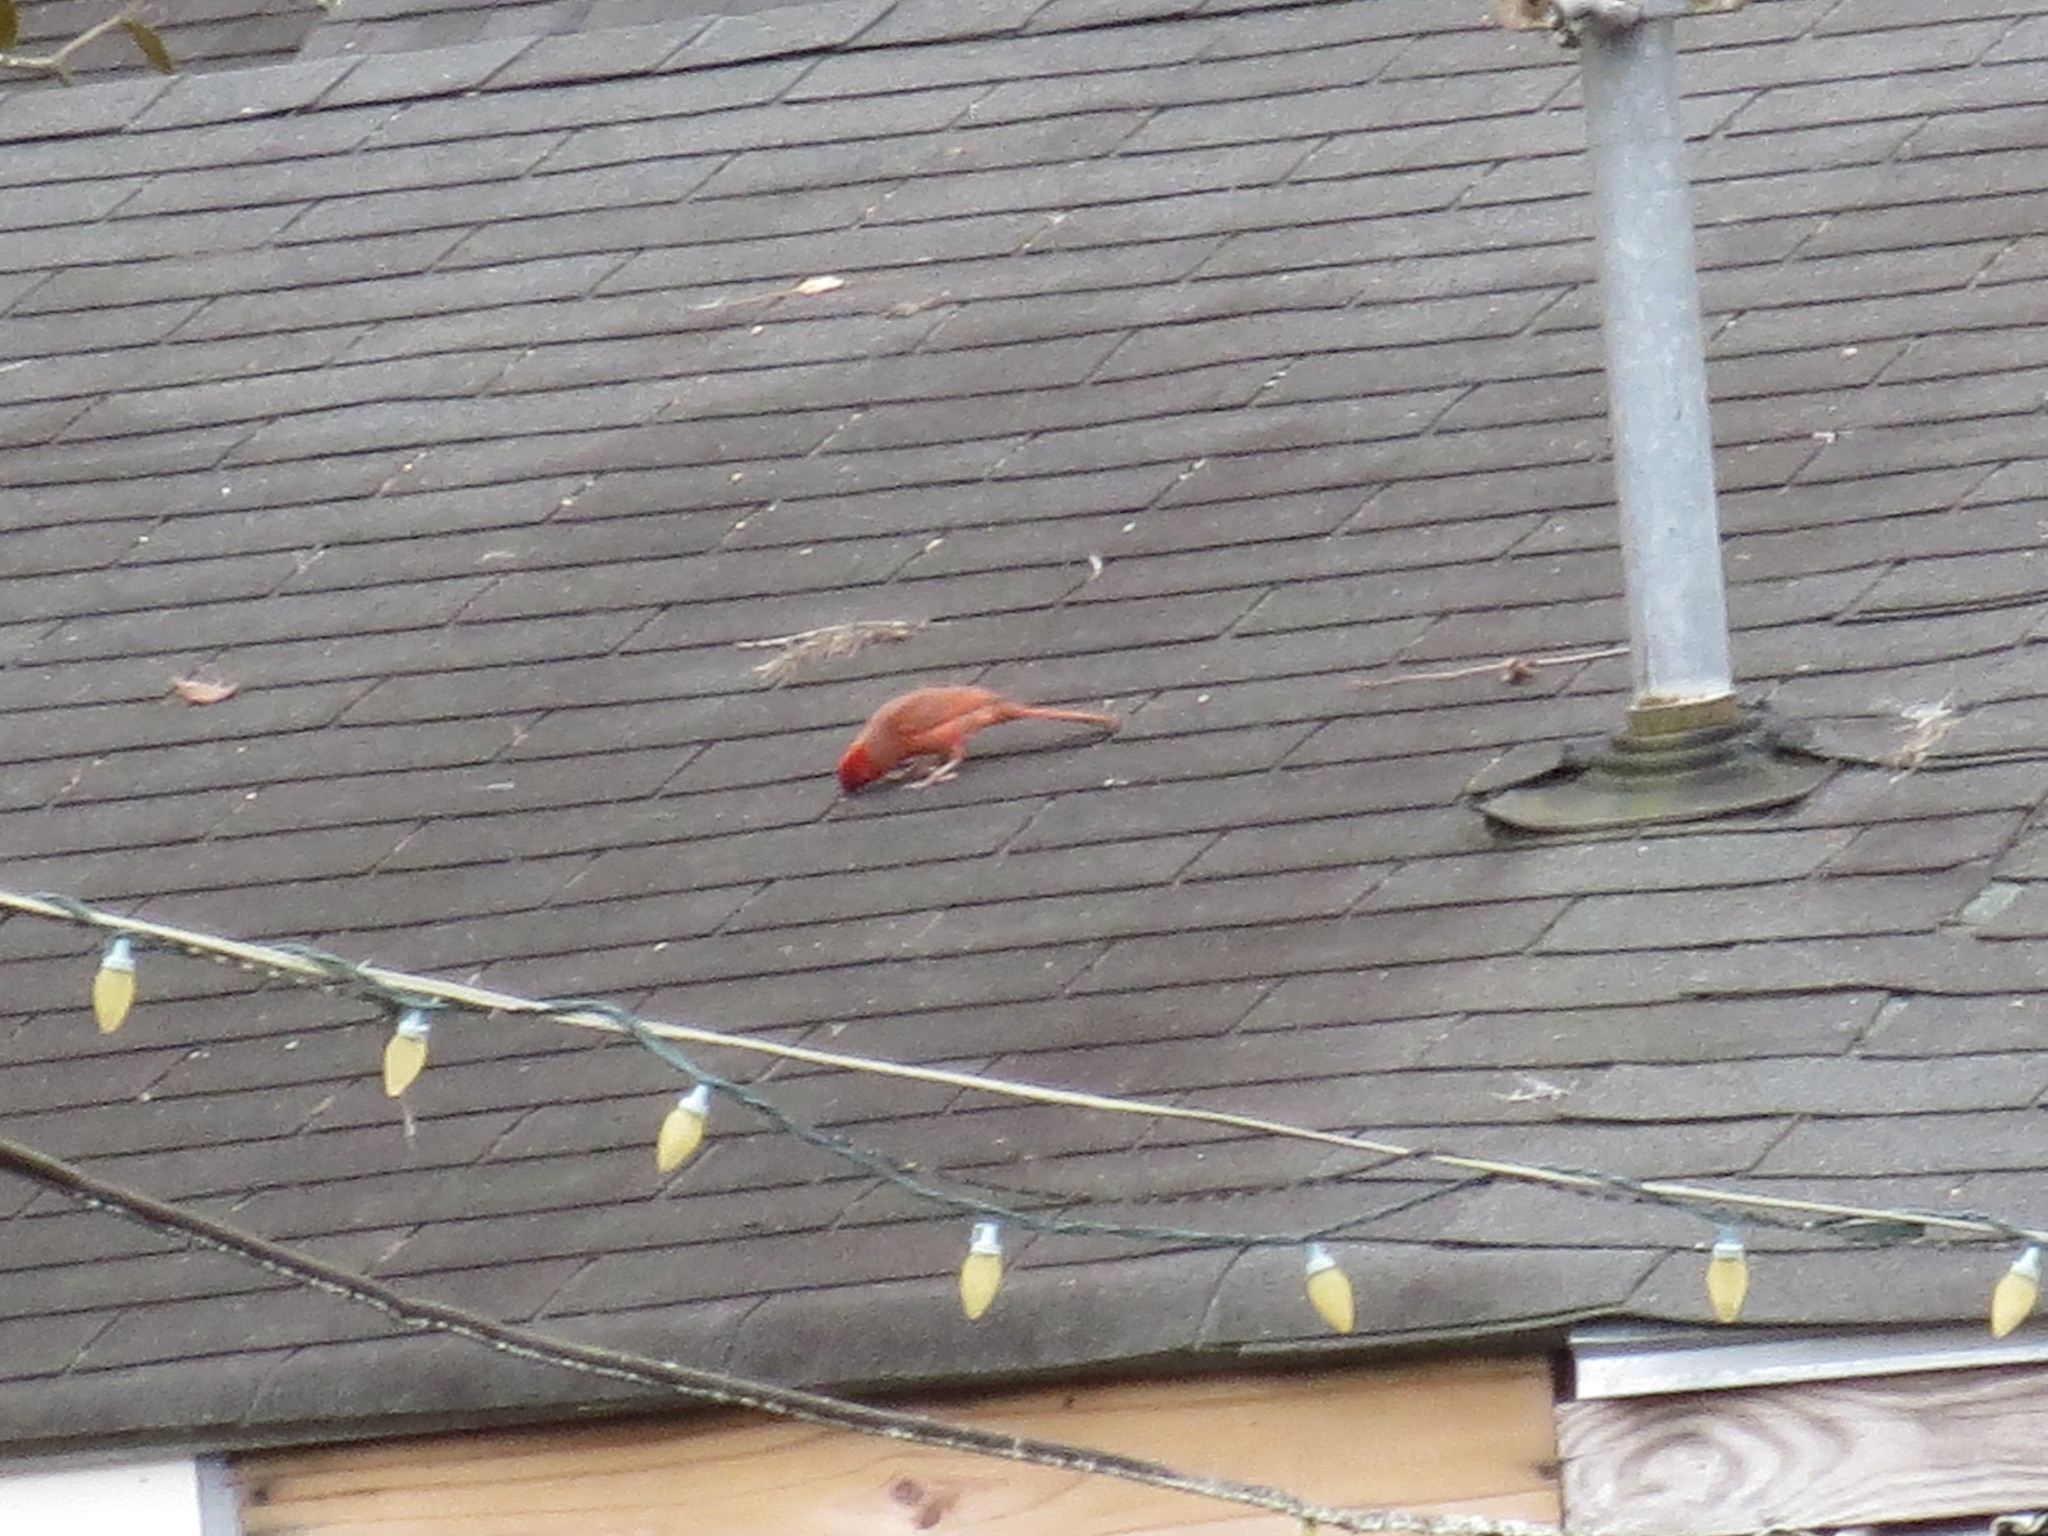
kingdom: Animalia
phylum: Chordata
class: Aves
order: Passeriformes
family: Cardinalidae
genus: Cardinalis
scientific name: Cardinalis cardinalis
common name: Northern cardinal
